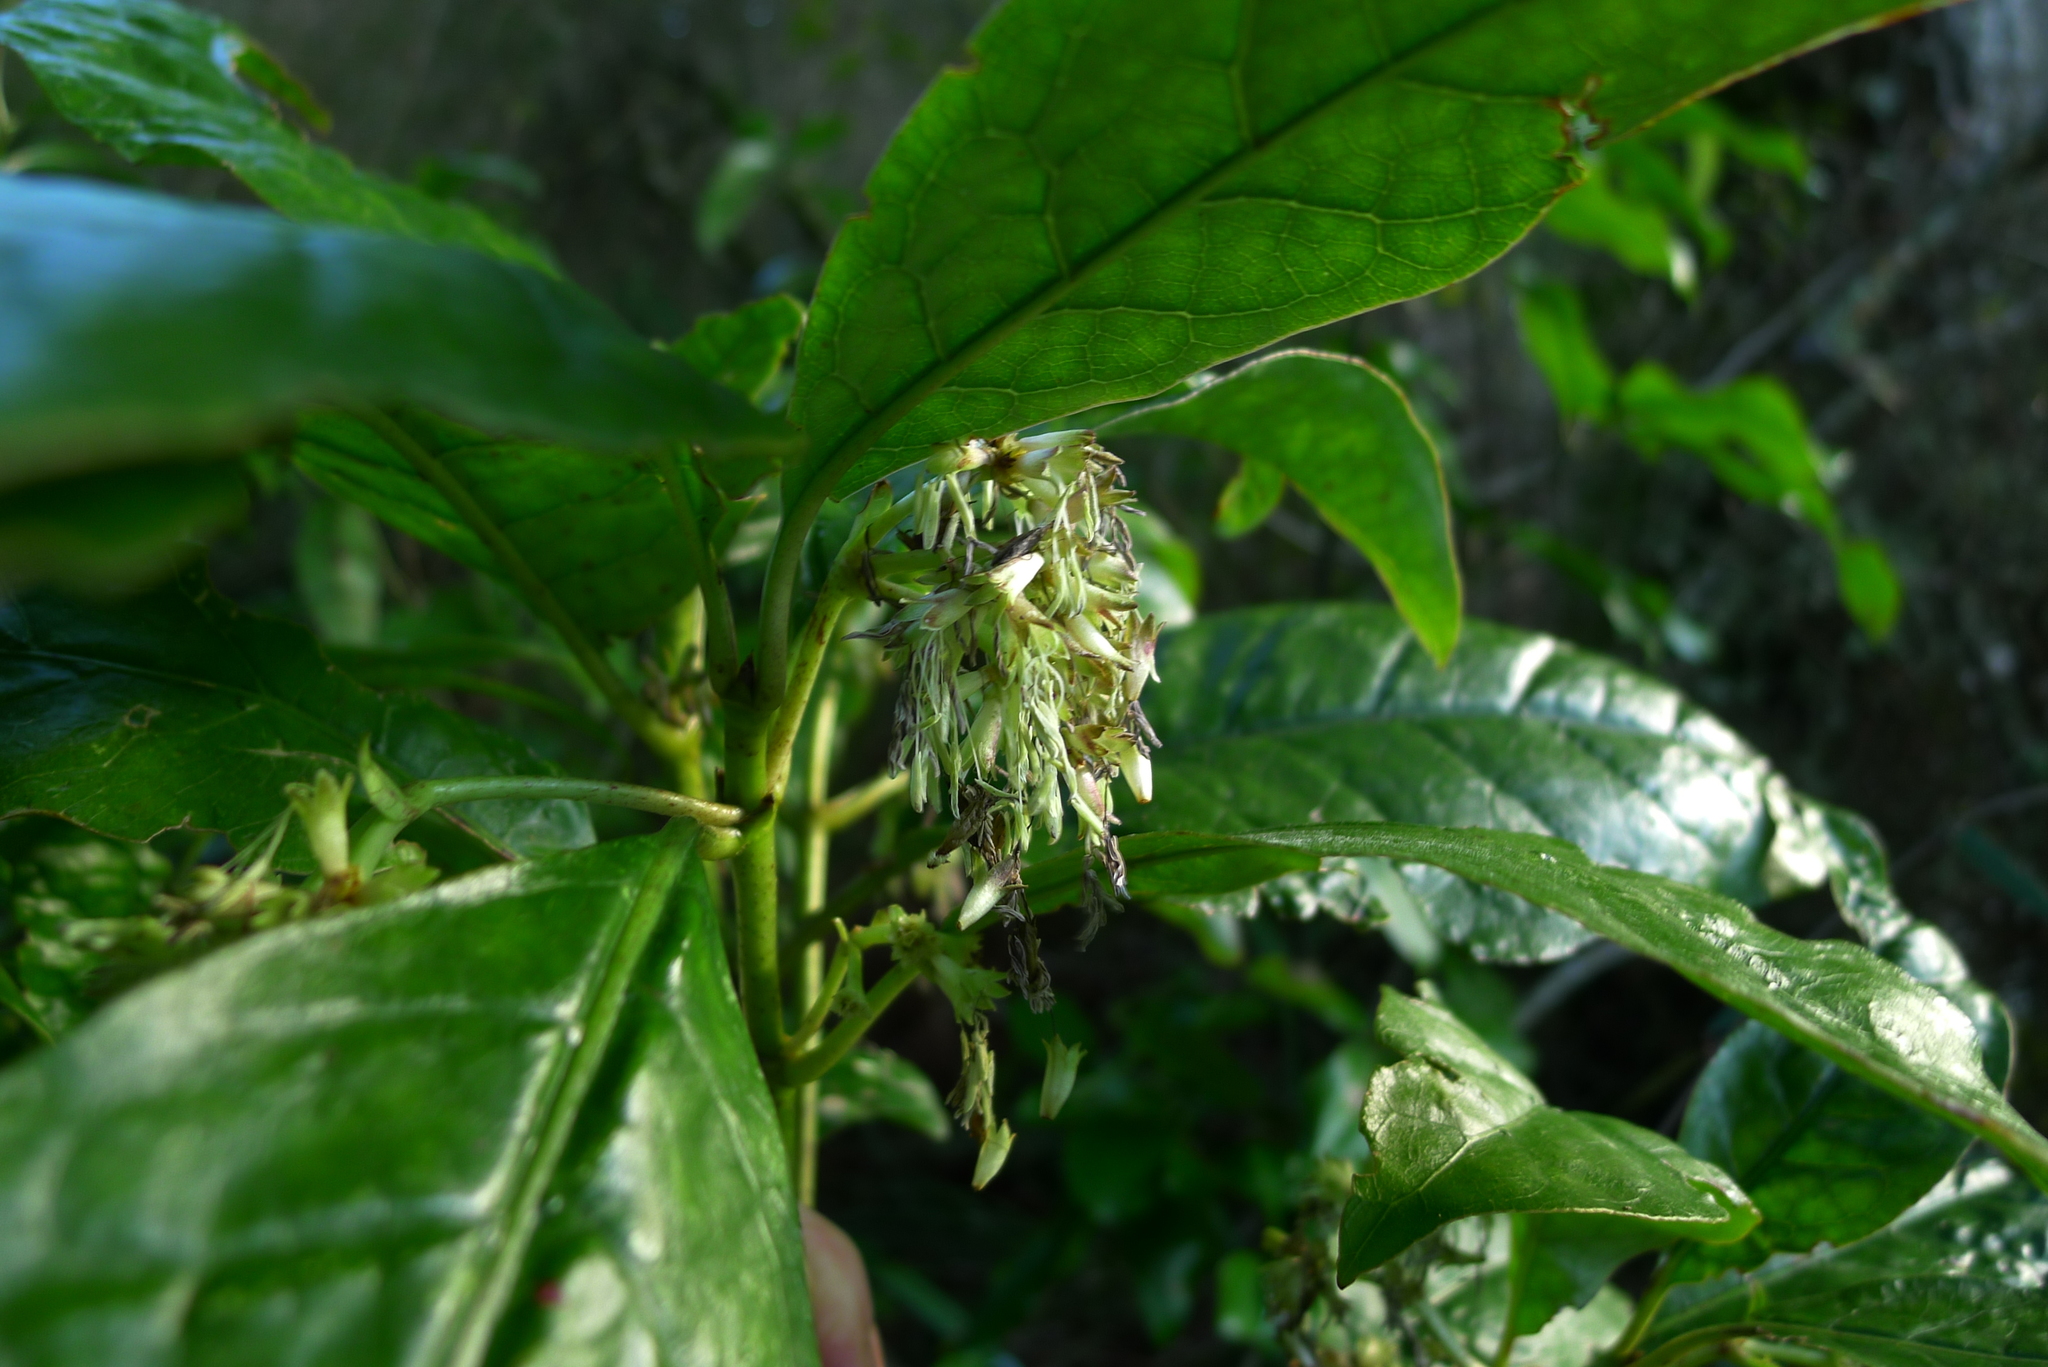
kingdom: Plantae
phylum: Tracheophyta
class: Magnoliopsida
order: Gentianales
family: Rubiaceae
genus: Coprosma
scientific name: Coprosma autumnalis
